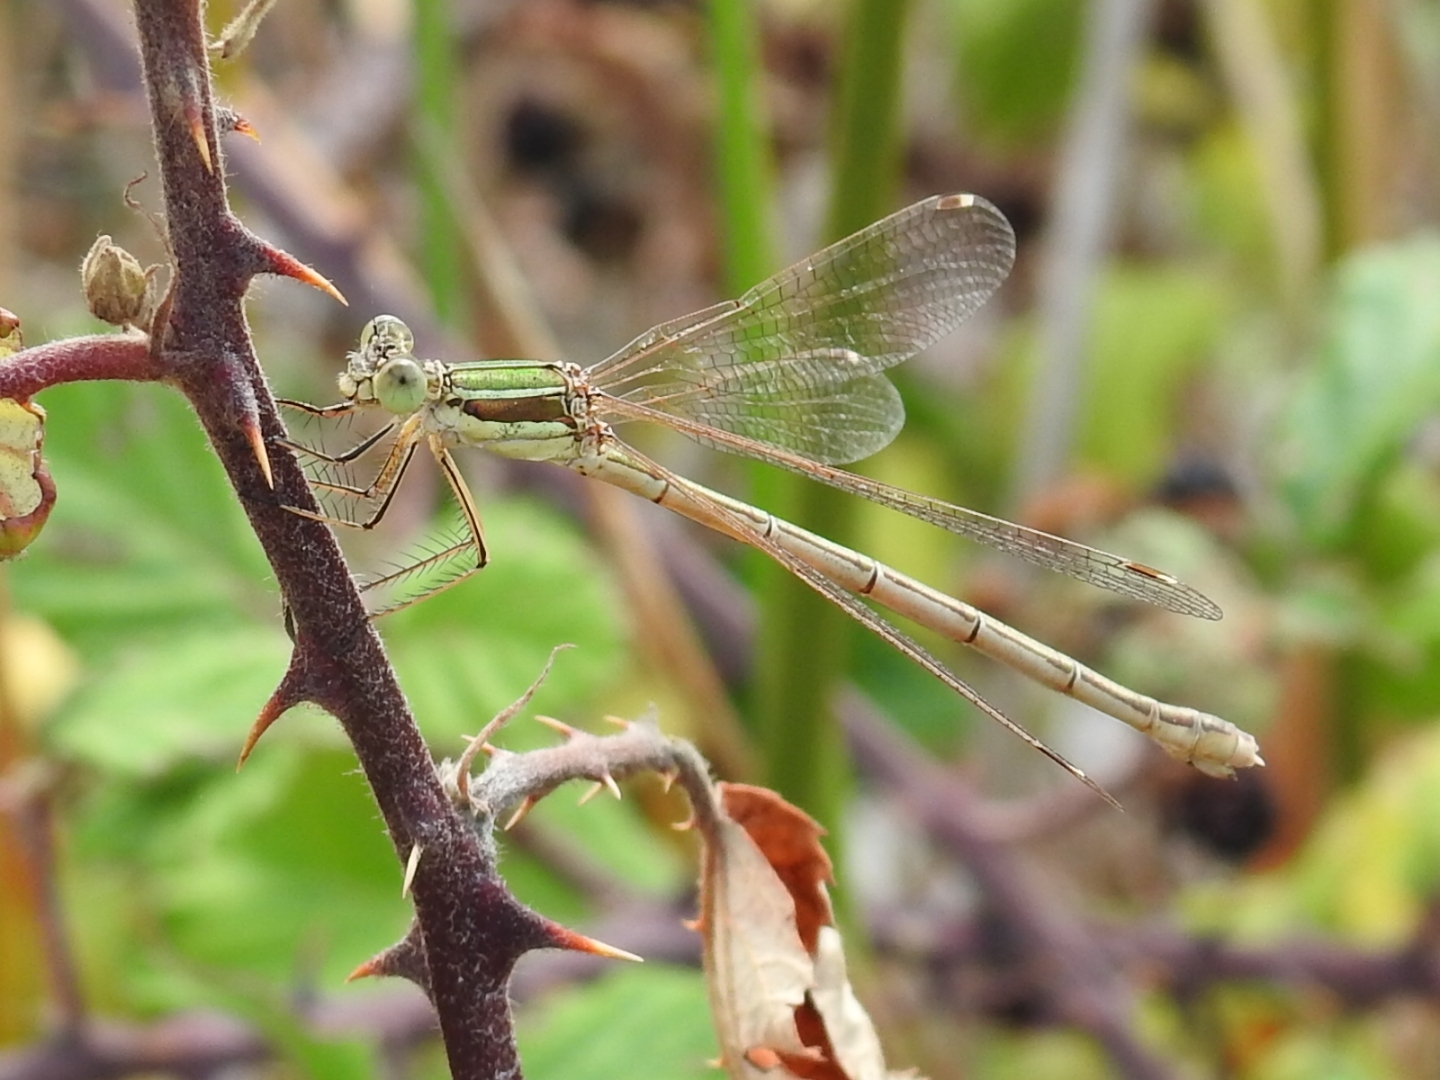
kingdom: Animalia
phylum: Arthropoda
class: Insecta
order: Odonata
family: Lestidae
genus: Lestes
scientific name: Lestes barbarus
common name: Migrant spreadwing
